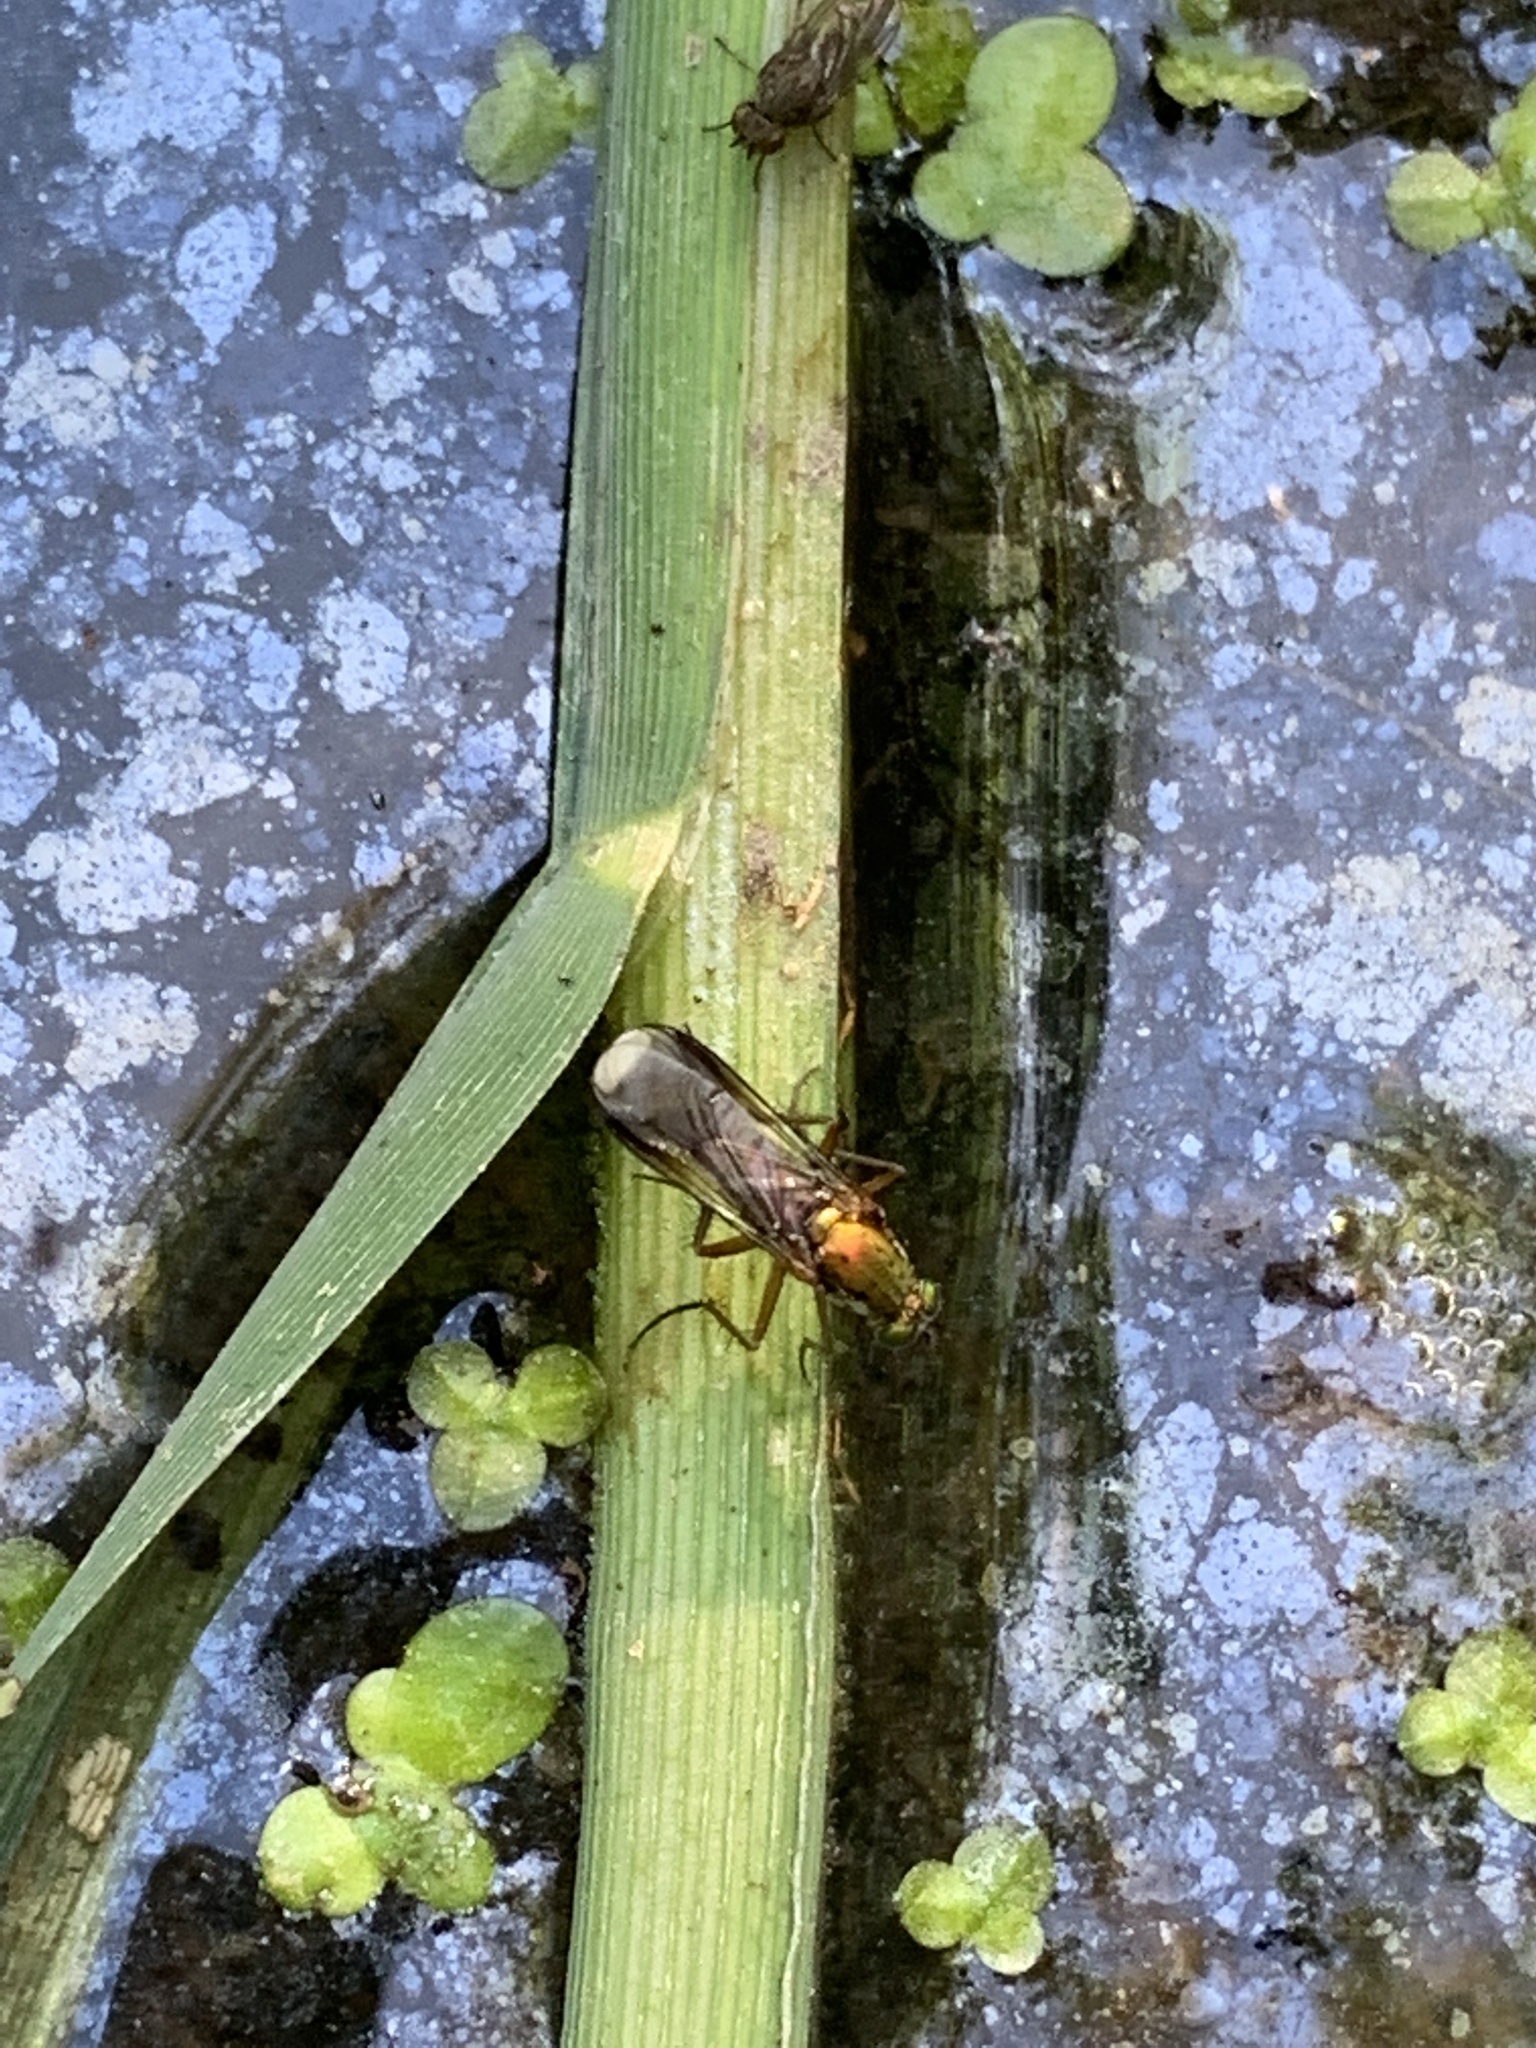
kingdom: Animalia
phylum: Arthropoda
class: Insecta
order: Diptera
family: Dolichopodidae
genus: Poecilobothrus
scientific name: Poecilobothrus nobilitatus
